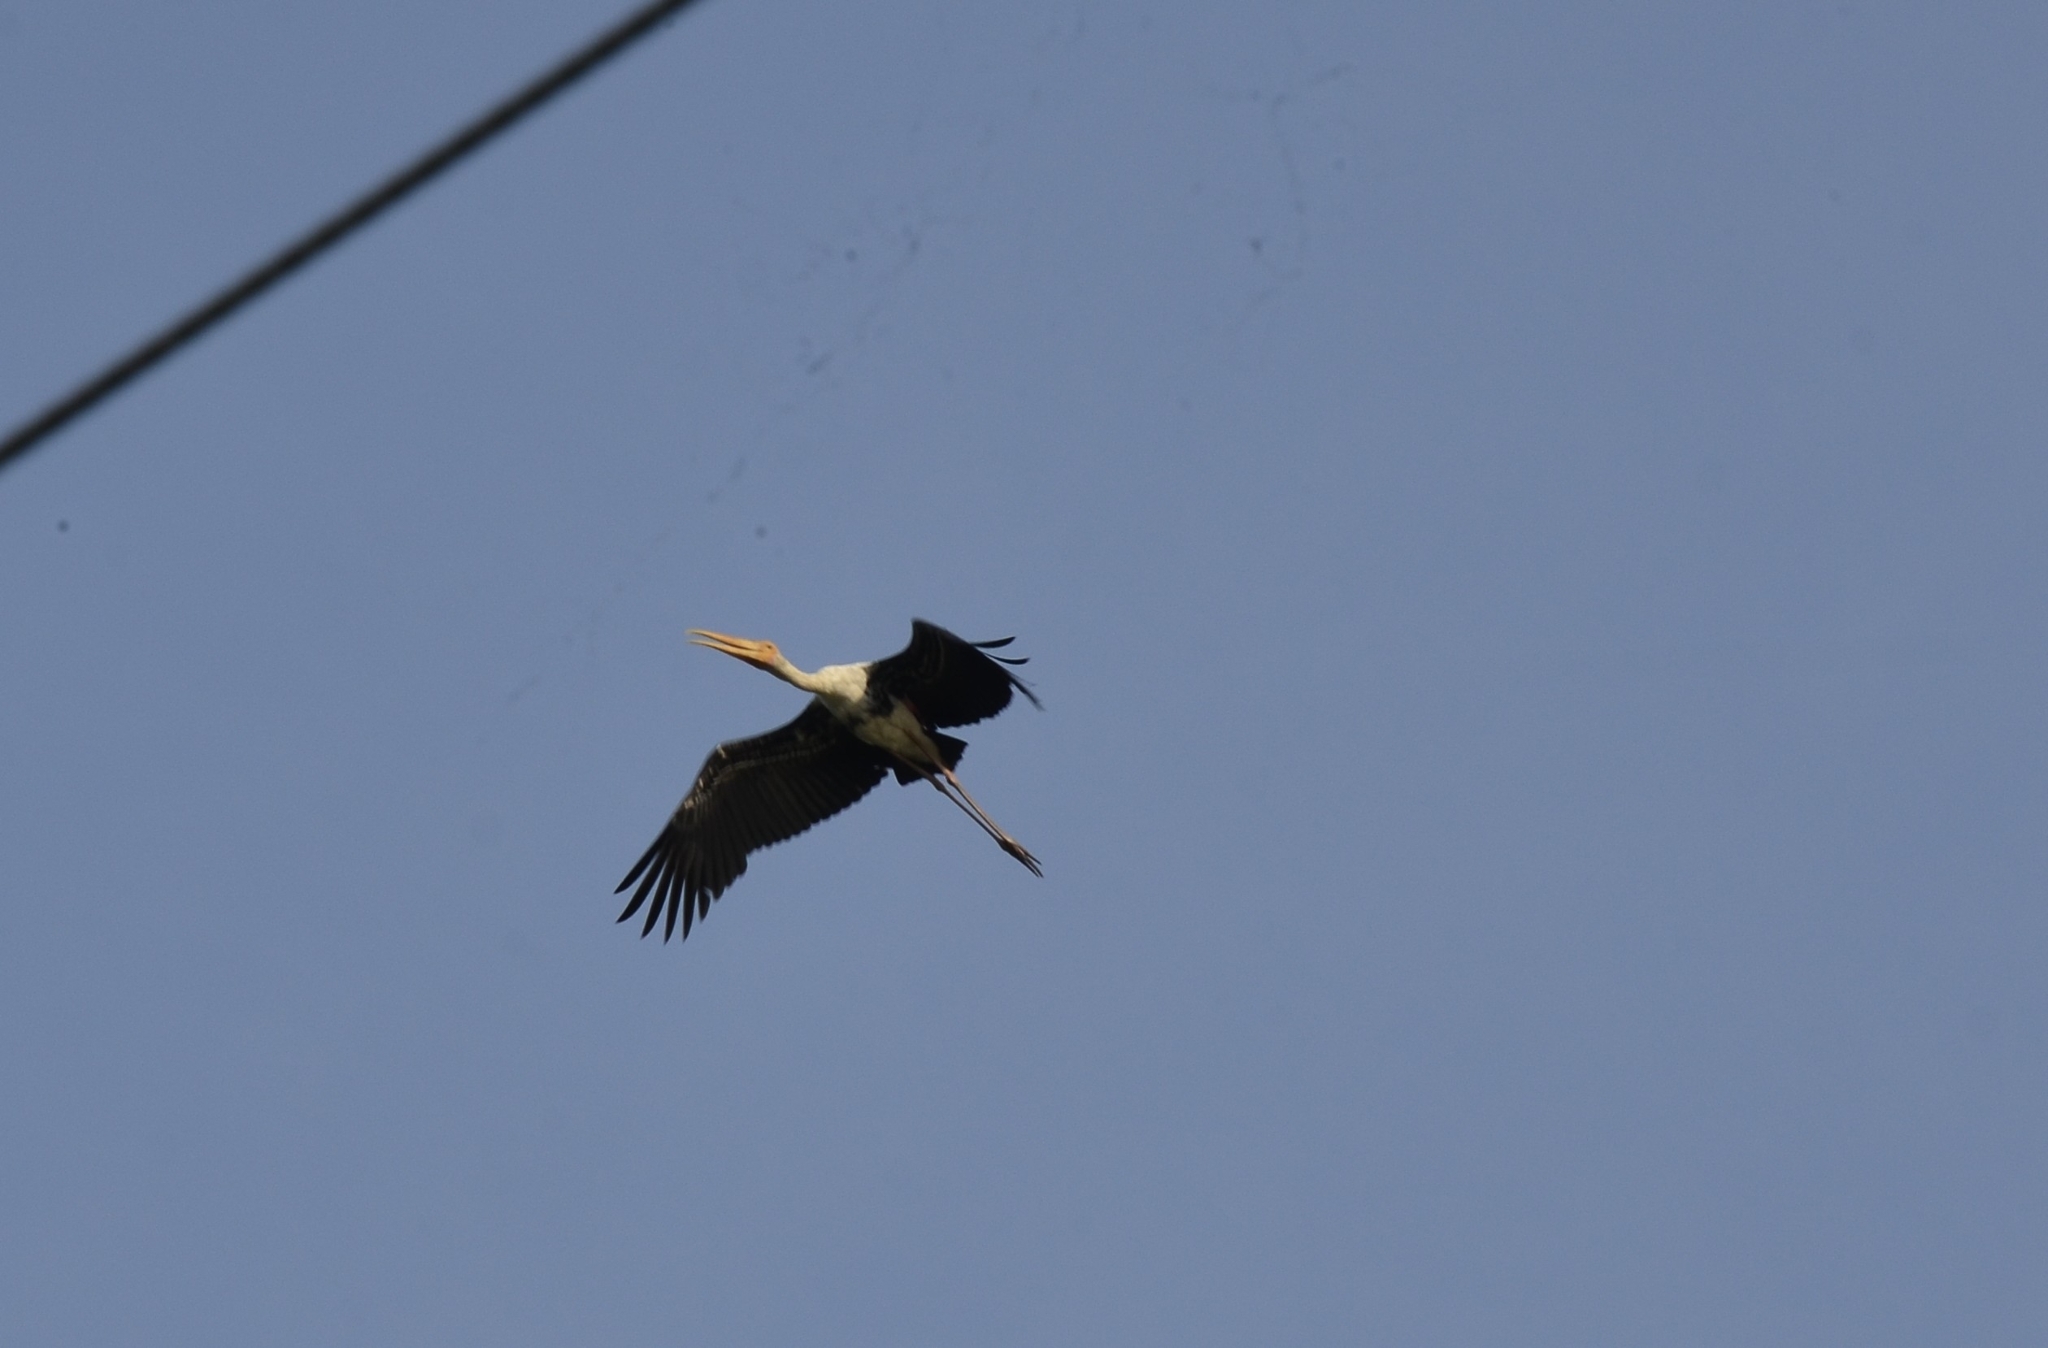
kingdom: Animalia
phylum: Chordata
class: Aves
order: Ciconiiformes
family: Ciconiidae
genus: Mycteria
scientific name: Mycteria leucocephala
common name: Painted stork
